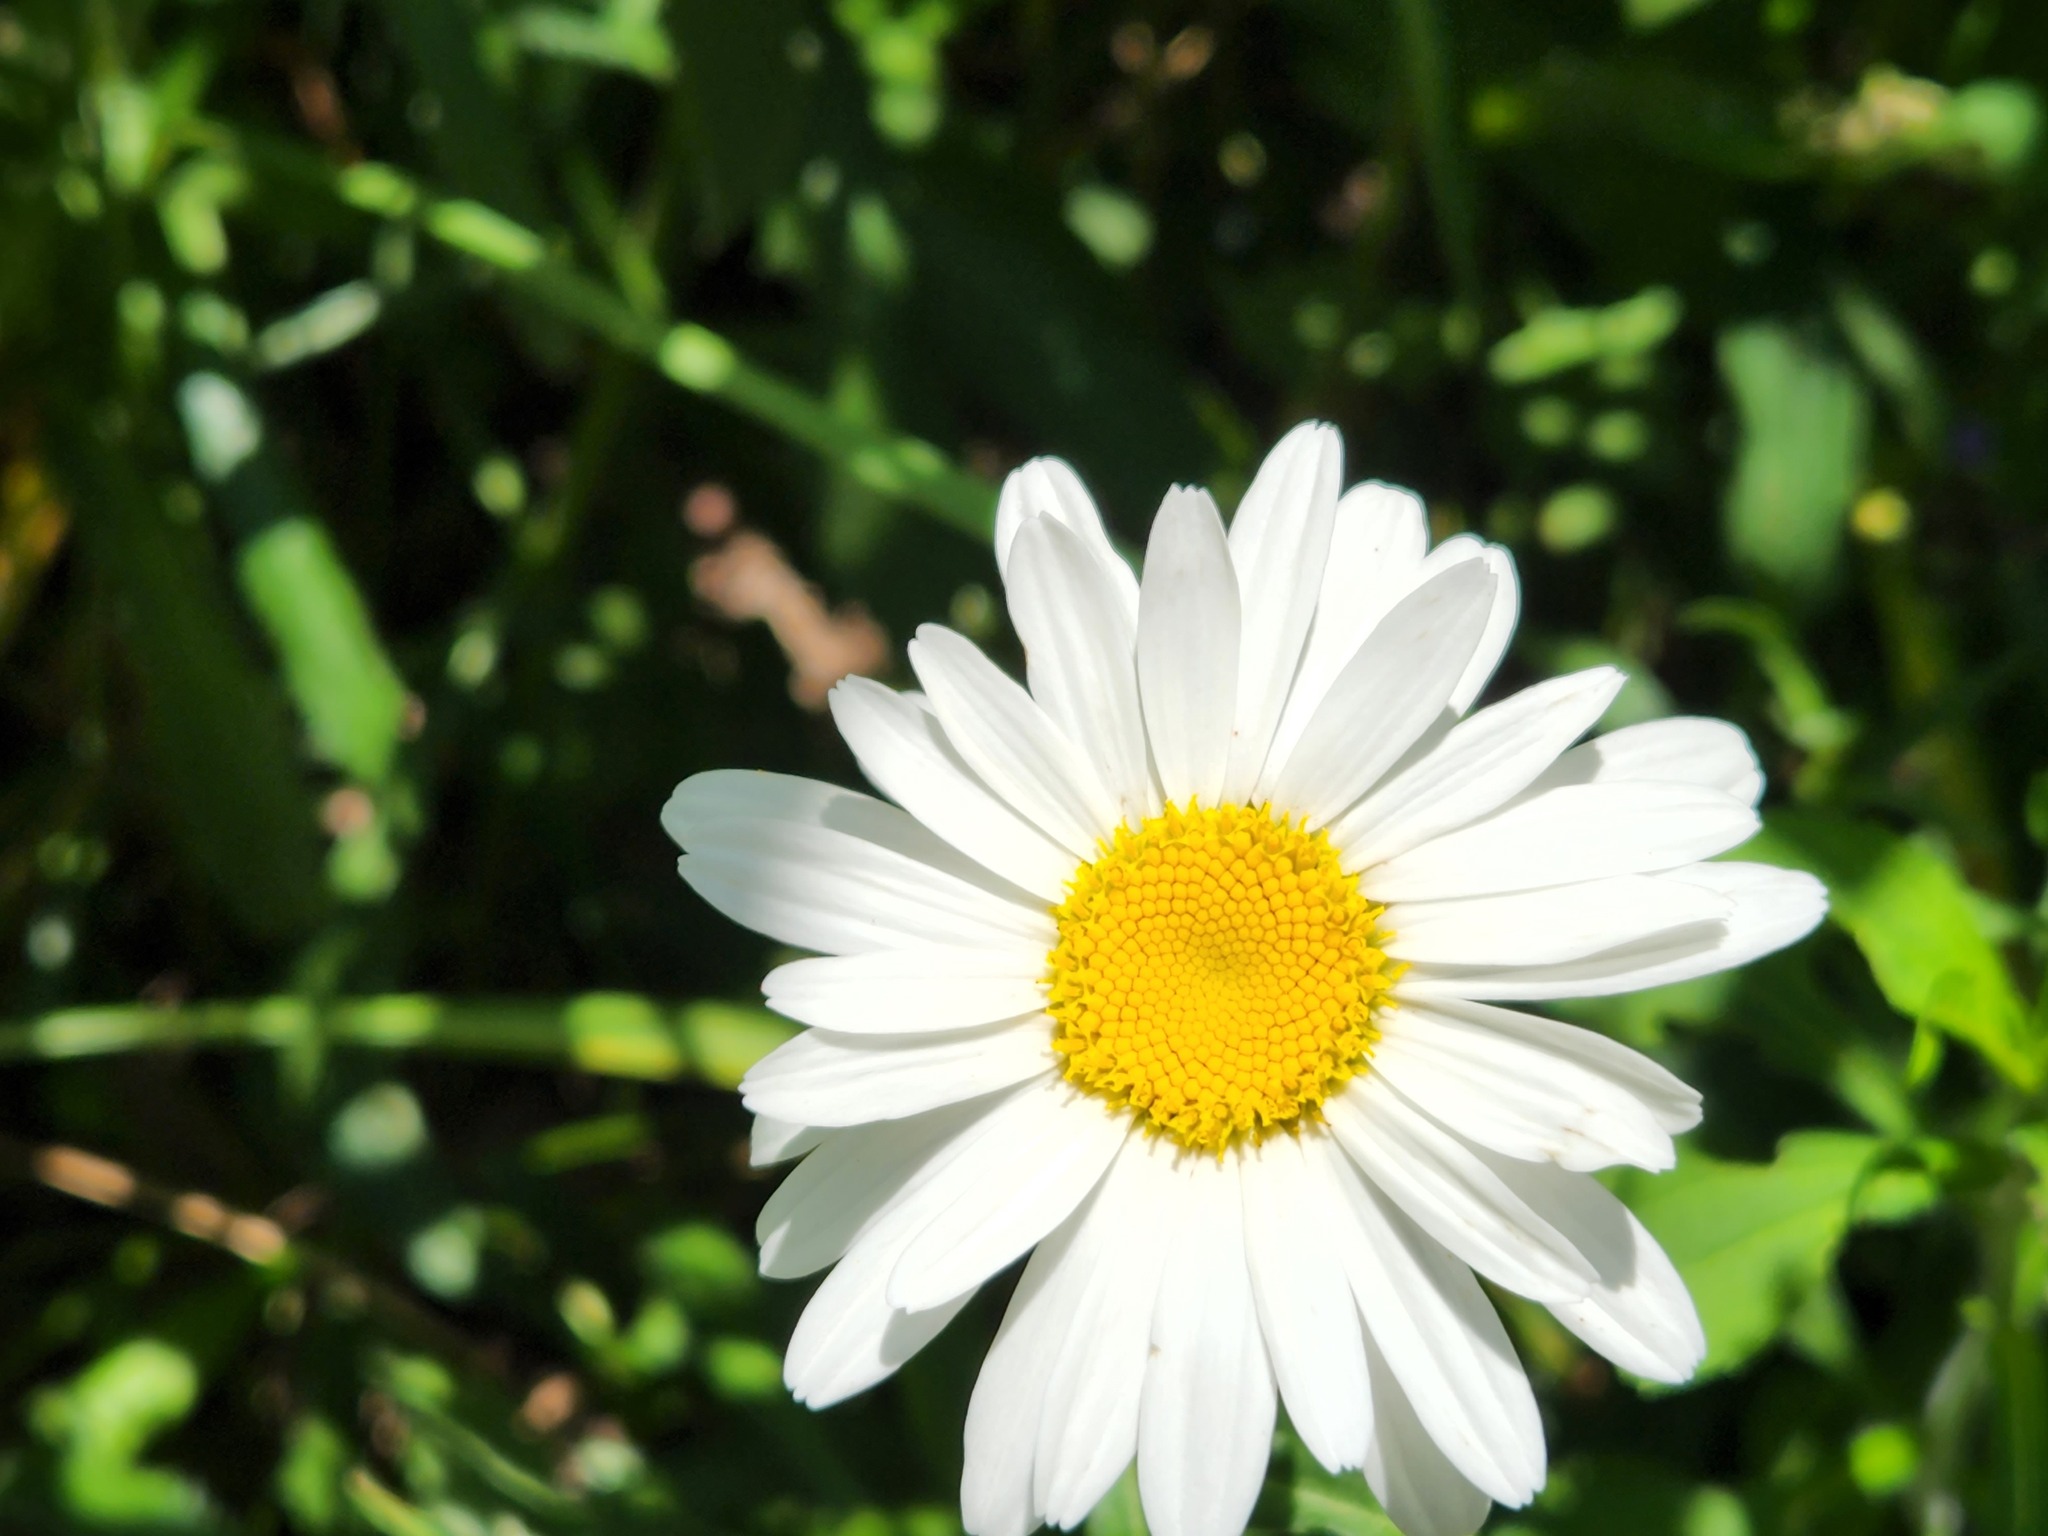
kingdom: Plantae
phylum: Tracheophyta
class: Magnoliopsida
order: Asterales
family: Asteraceae
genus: Leucanthemum
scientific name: Leucanthemum maximum
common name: Max chrysanthemum
